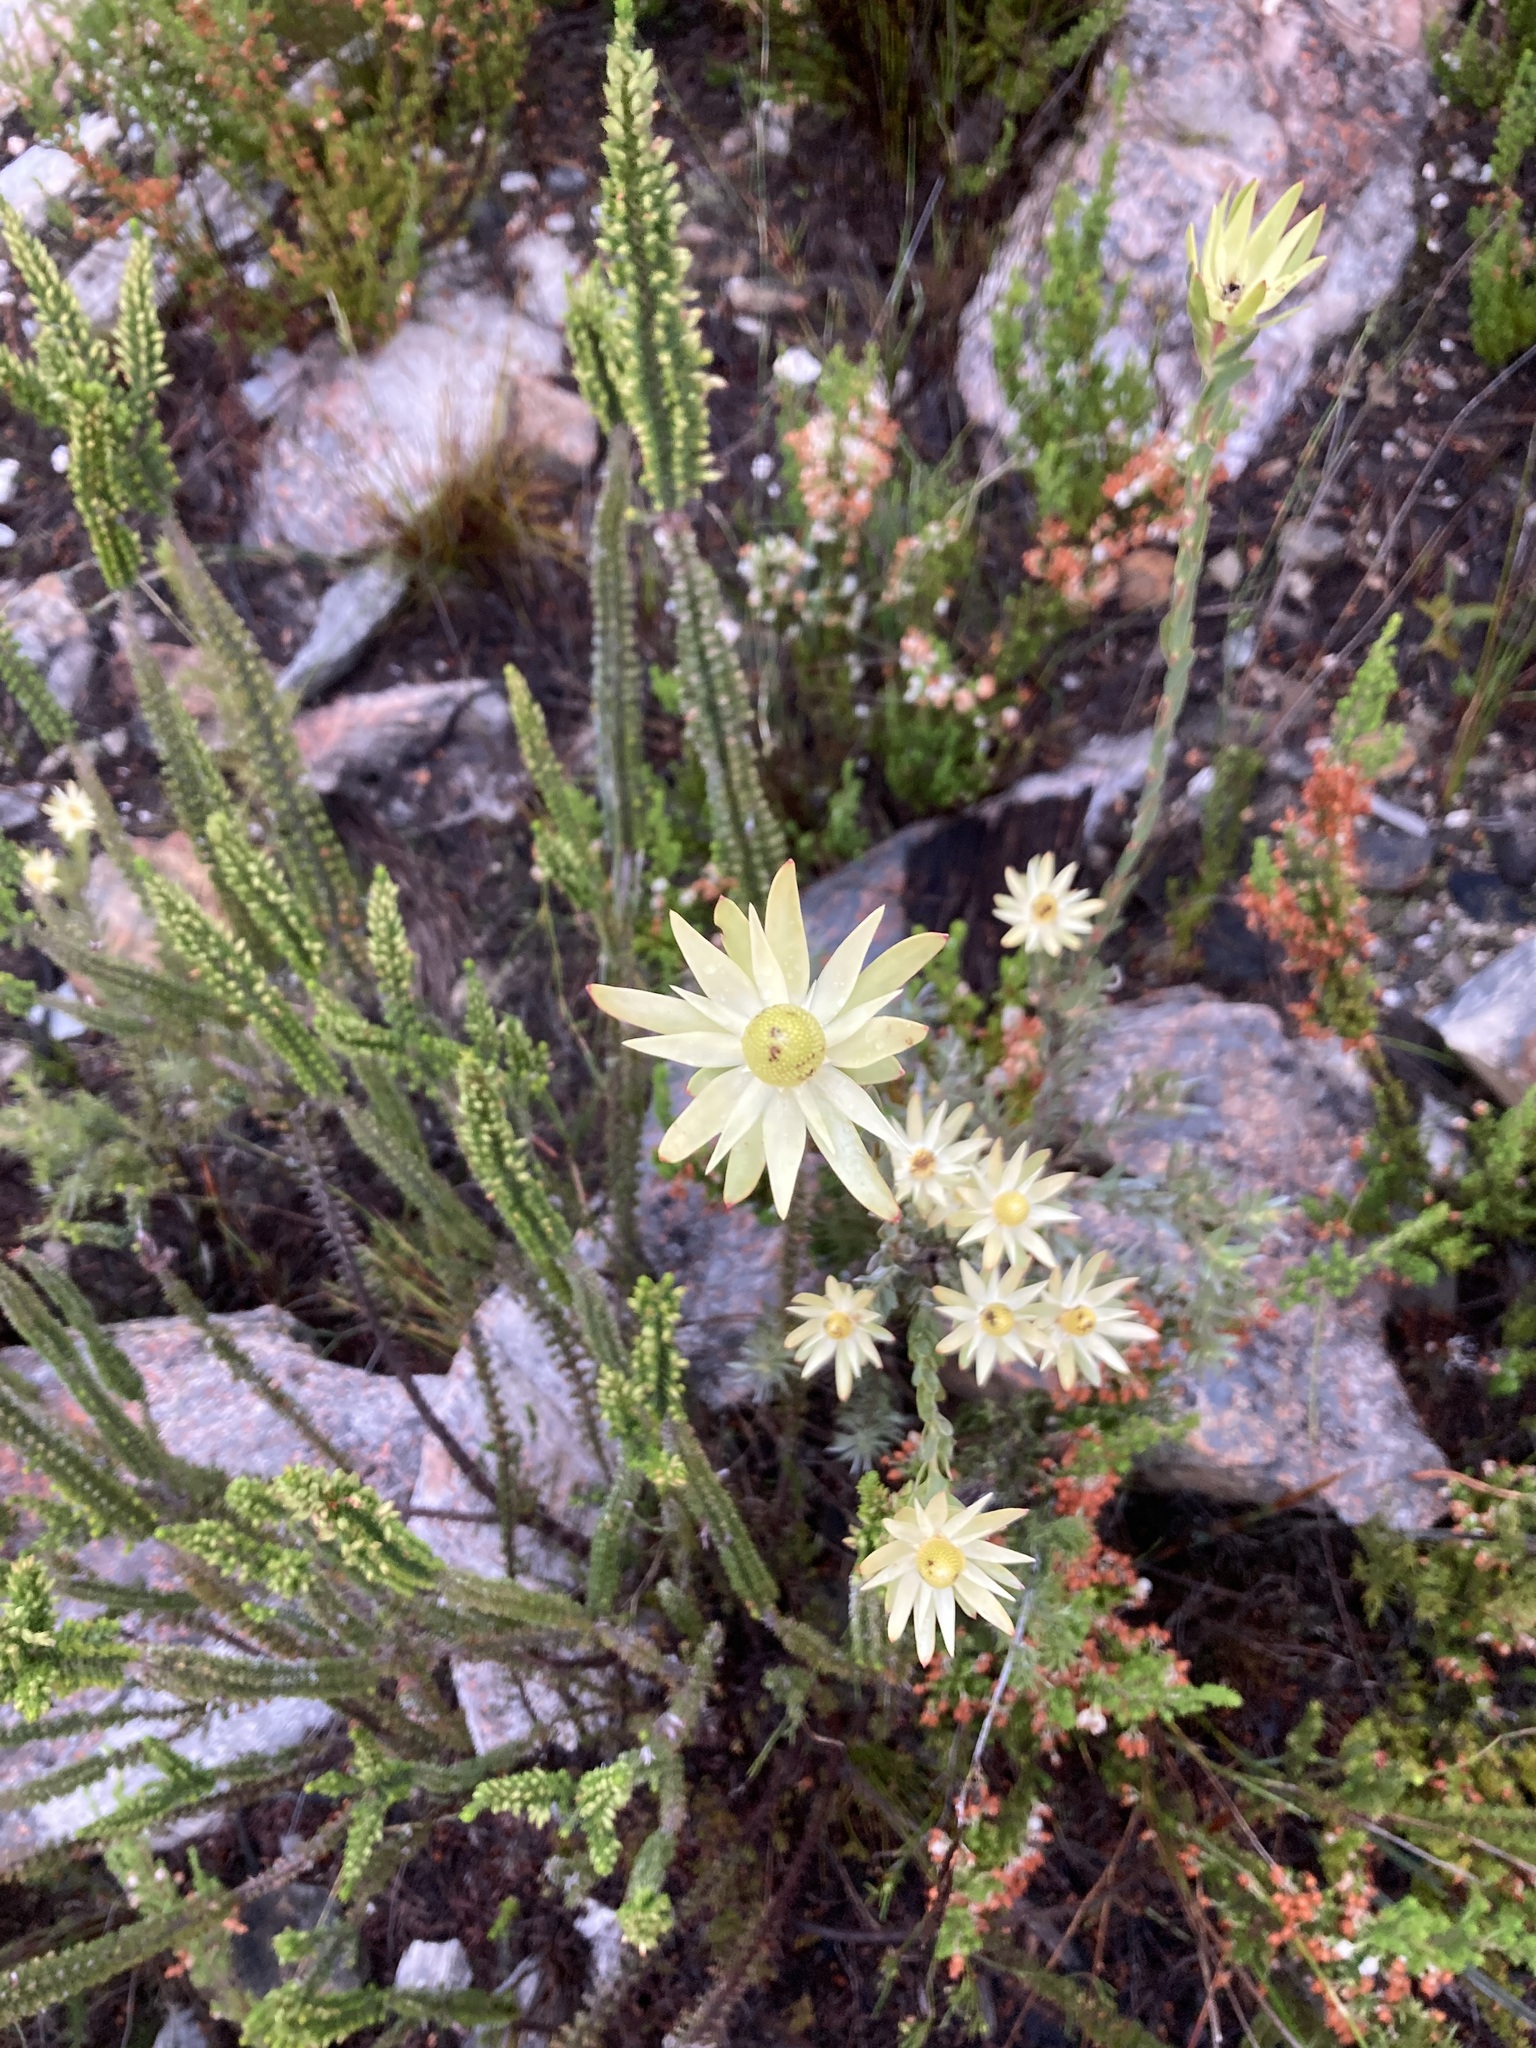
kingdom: Plantae
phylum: Tracheophyta
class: Magnoliopsida
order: Proteales
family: Proteaceae
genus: Leucadendron
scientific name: Leucadendron uliginosum
